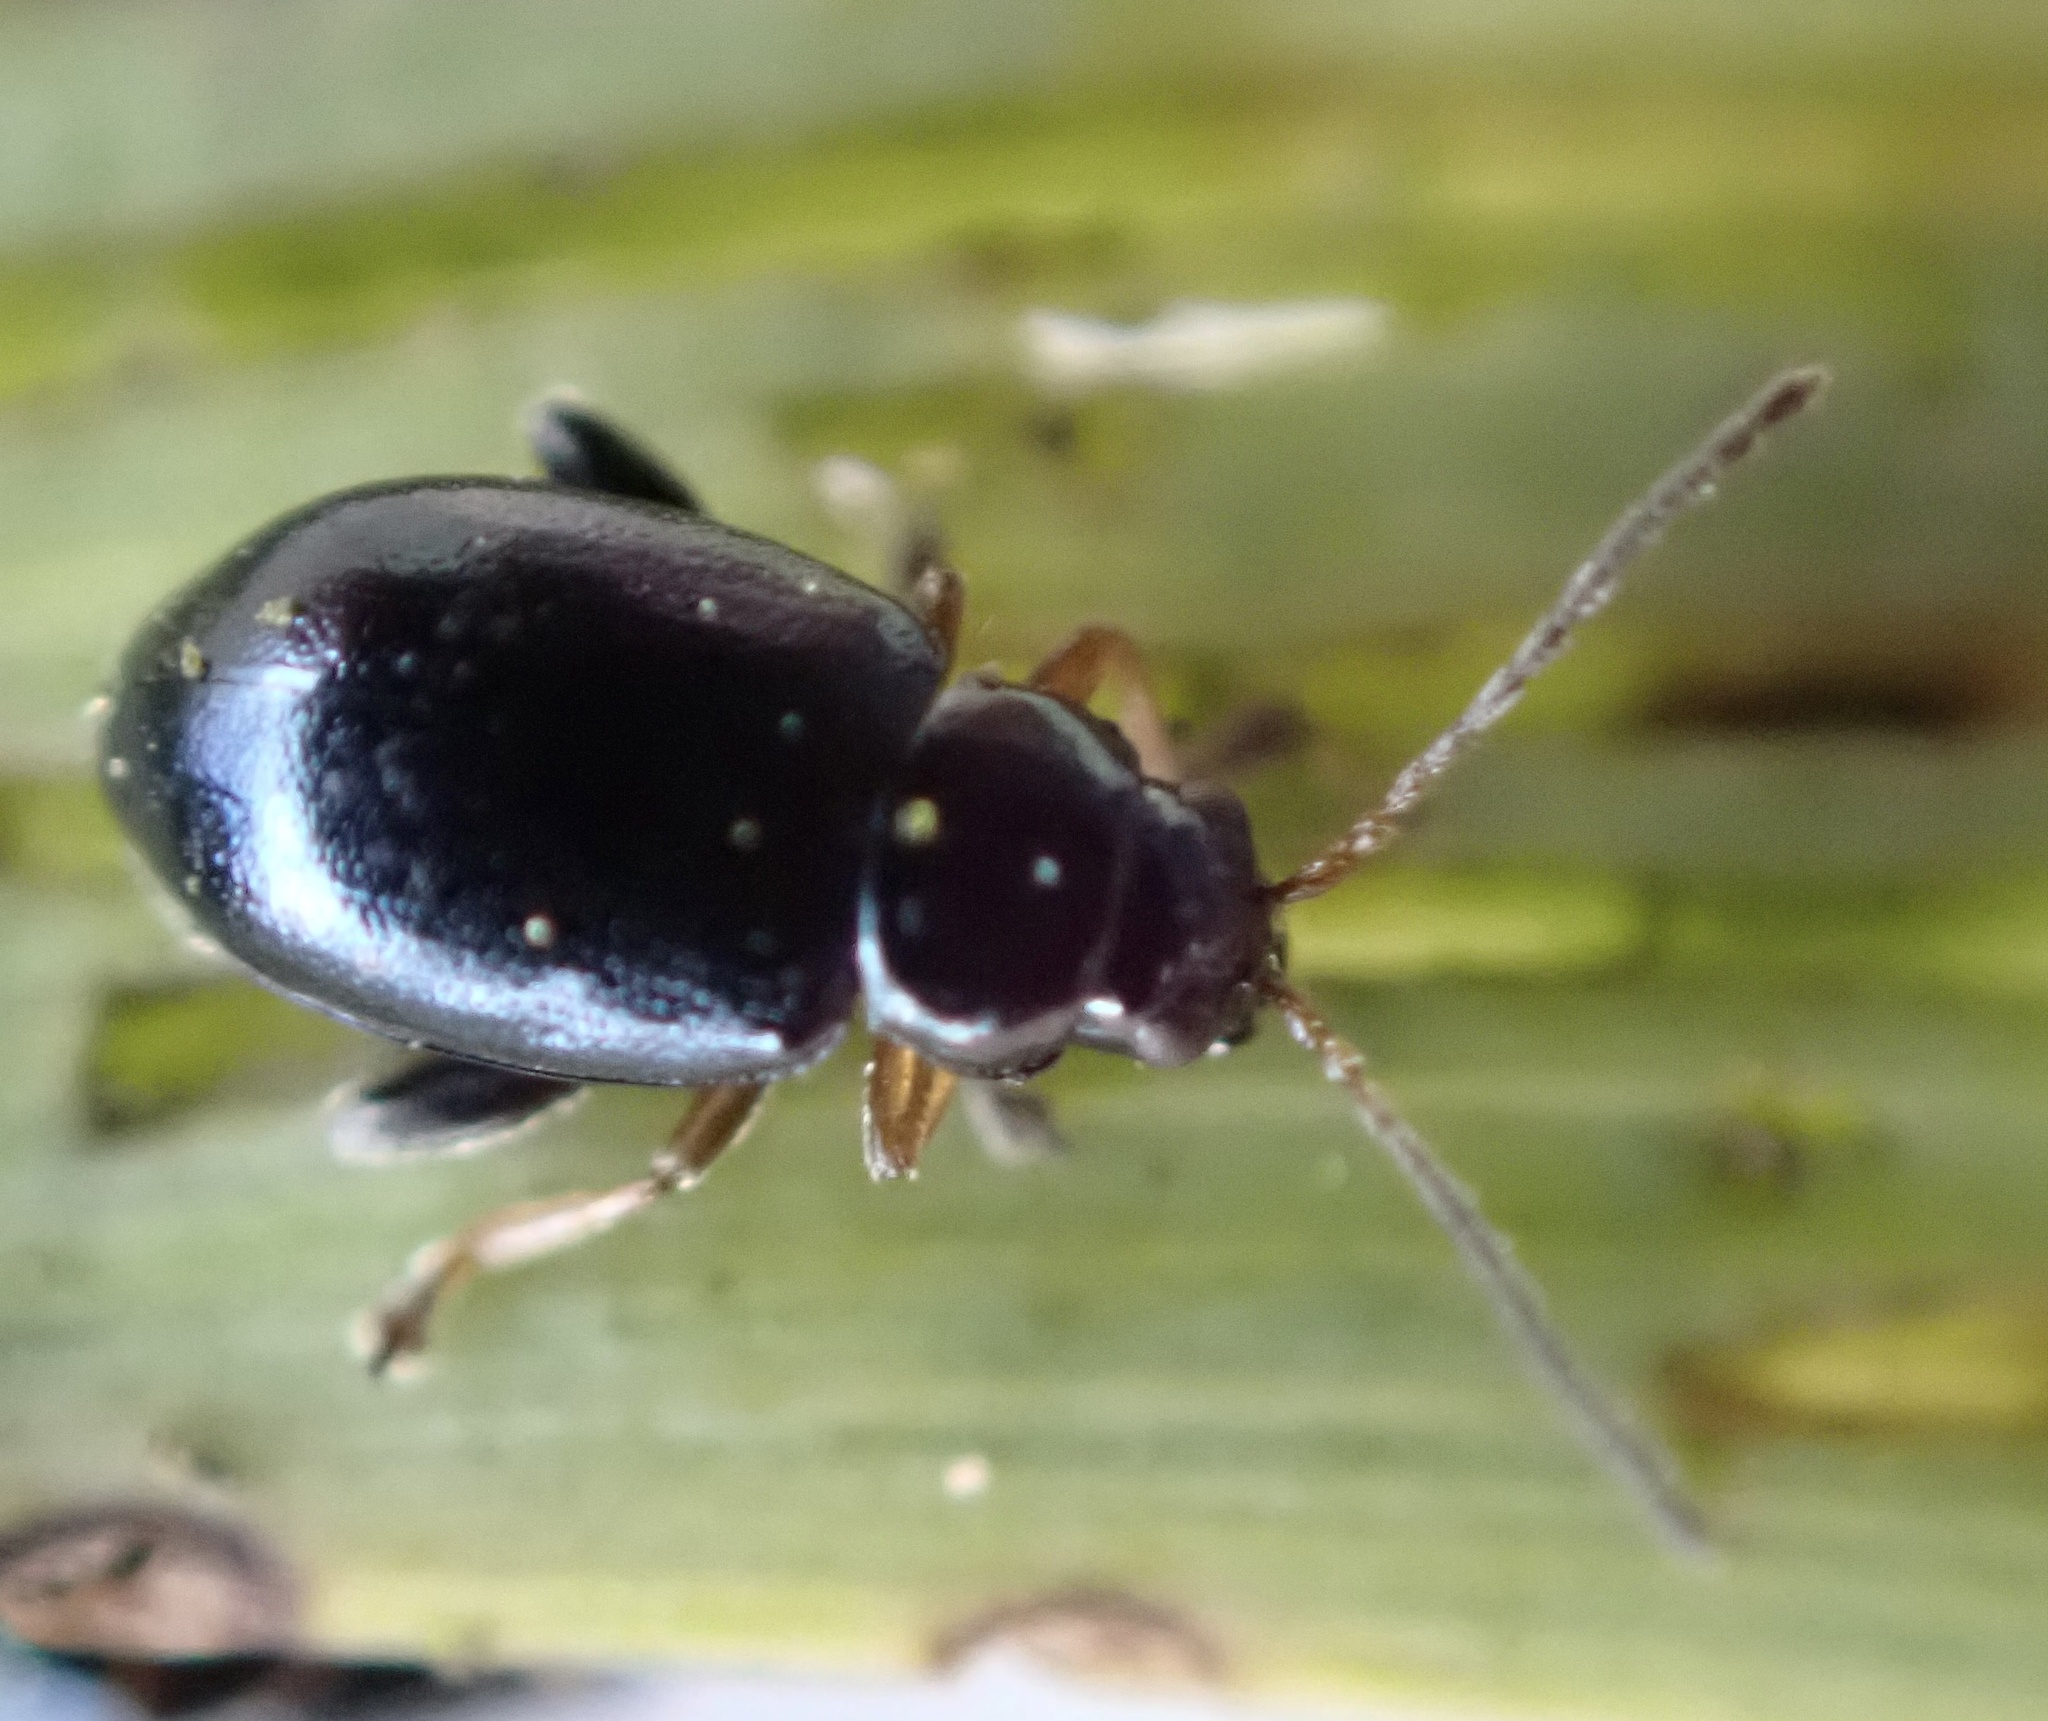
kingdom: Animalia
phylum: Arthropoda
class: Insecta
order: Coleoptera
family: Chrysomelidae
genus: Aphthona
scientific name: Aphthona nonstriata
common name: Iris flea beetle
